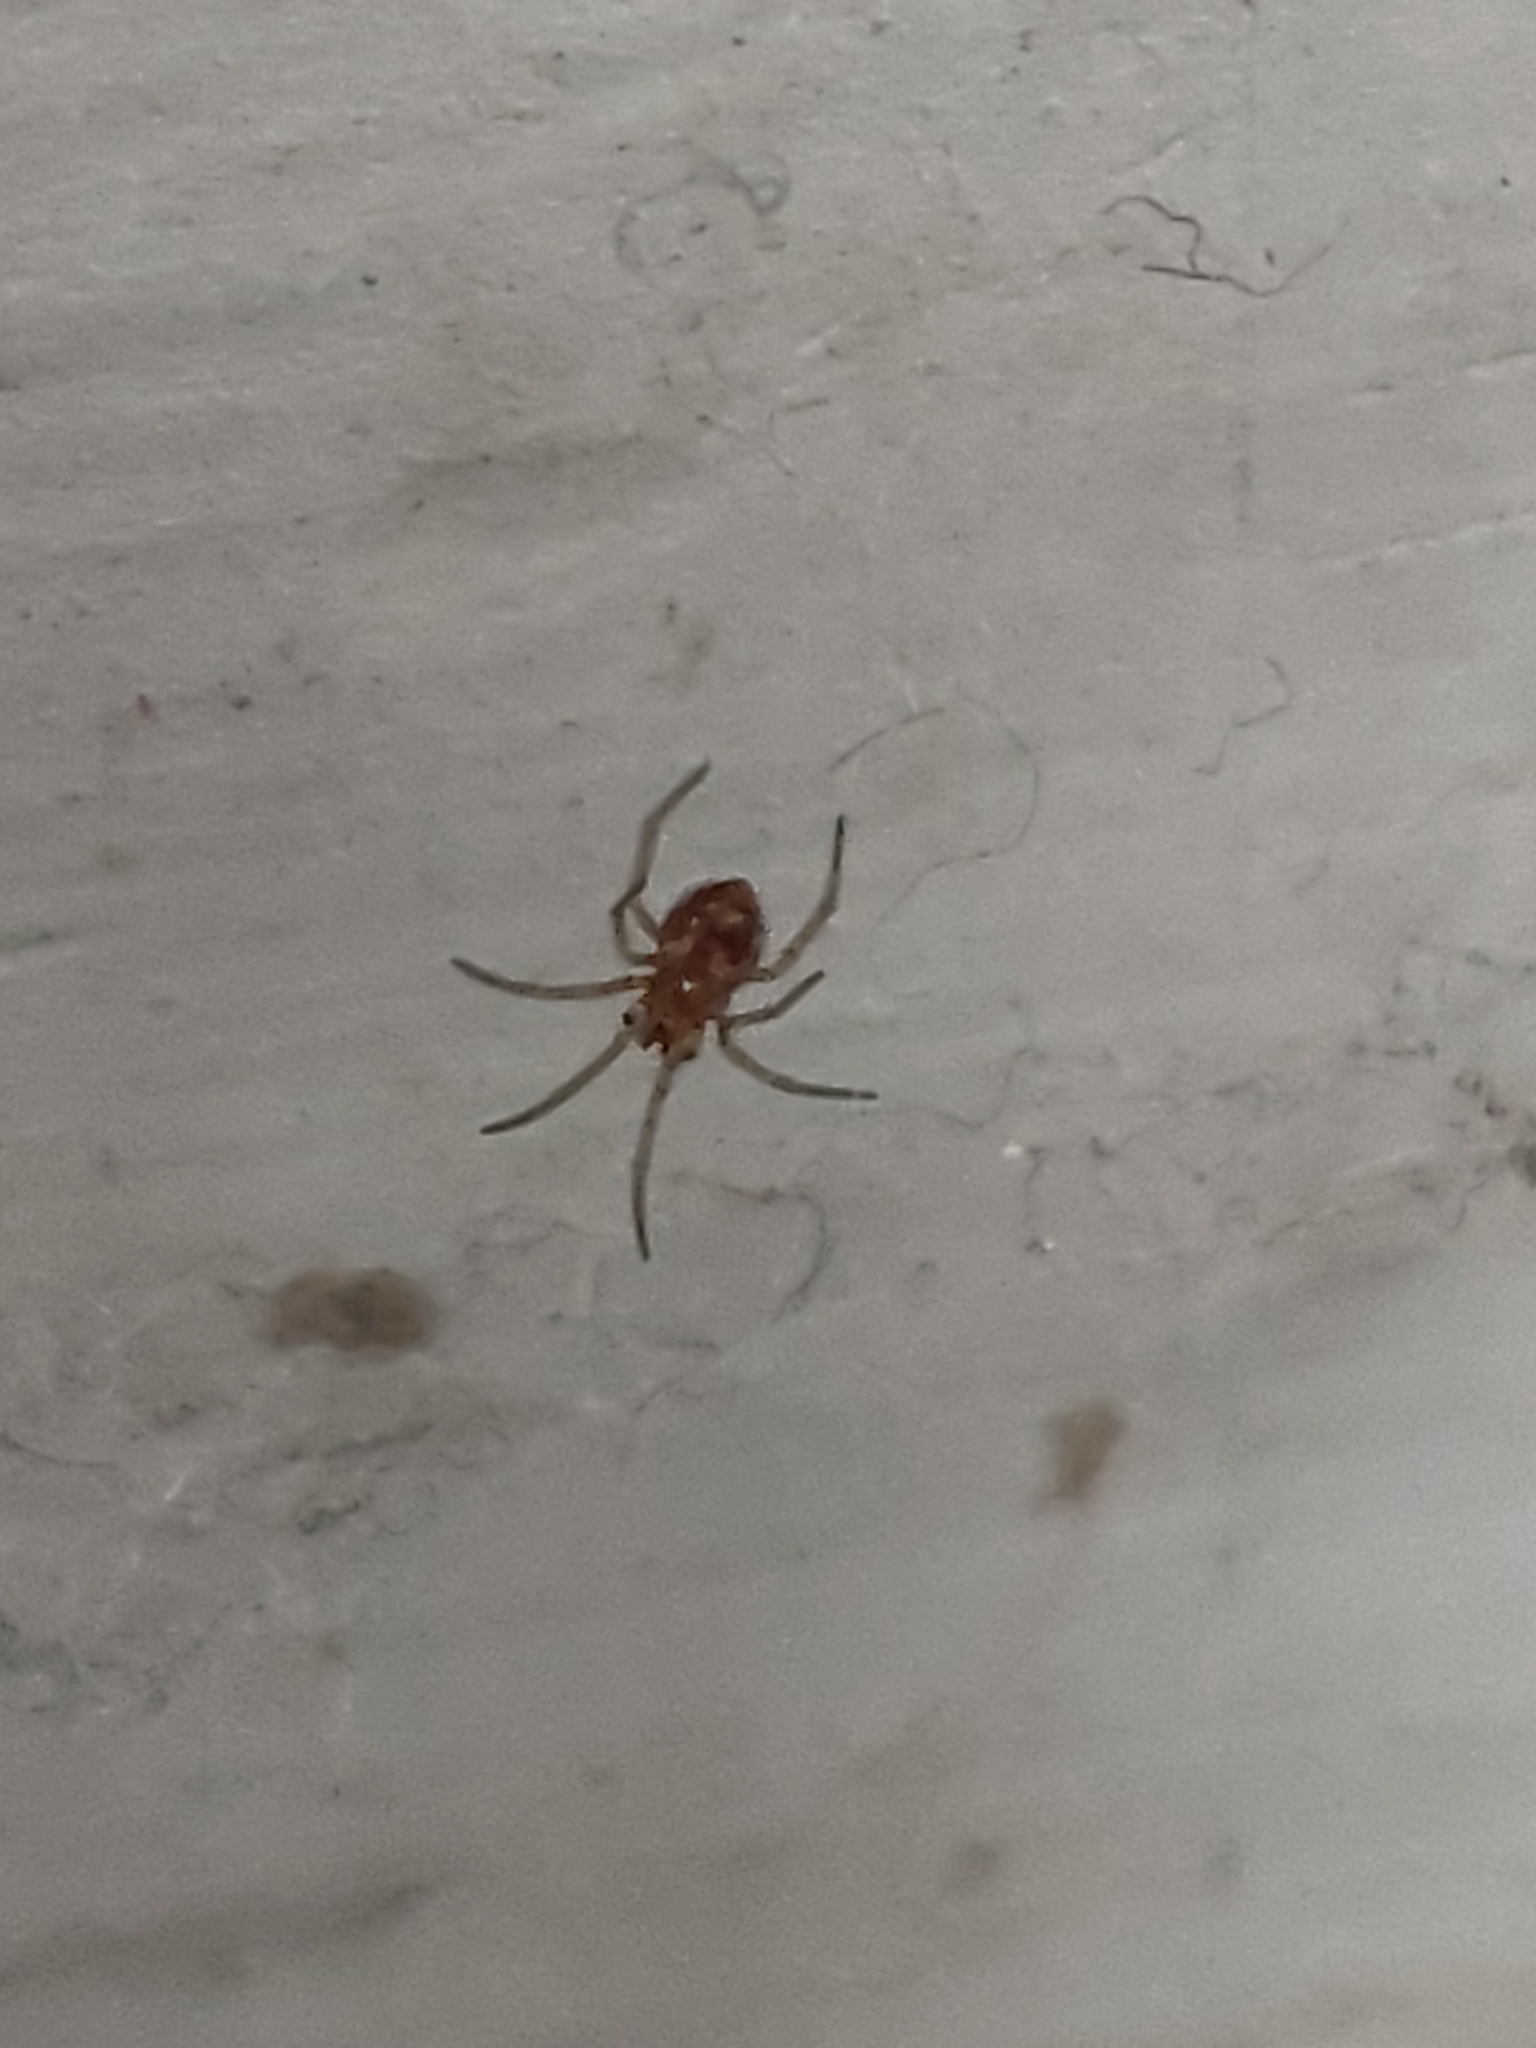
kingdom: Animalia
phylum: Arthropoda
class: Arachnida
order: Araneae
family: Theridiidae
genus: Steatoda
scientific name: Steatoda
